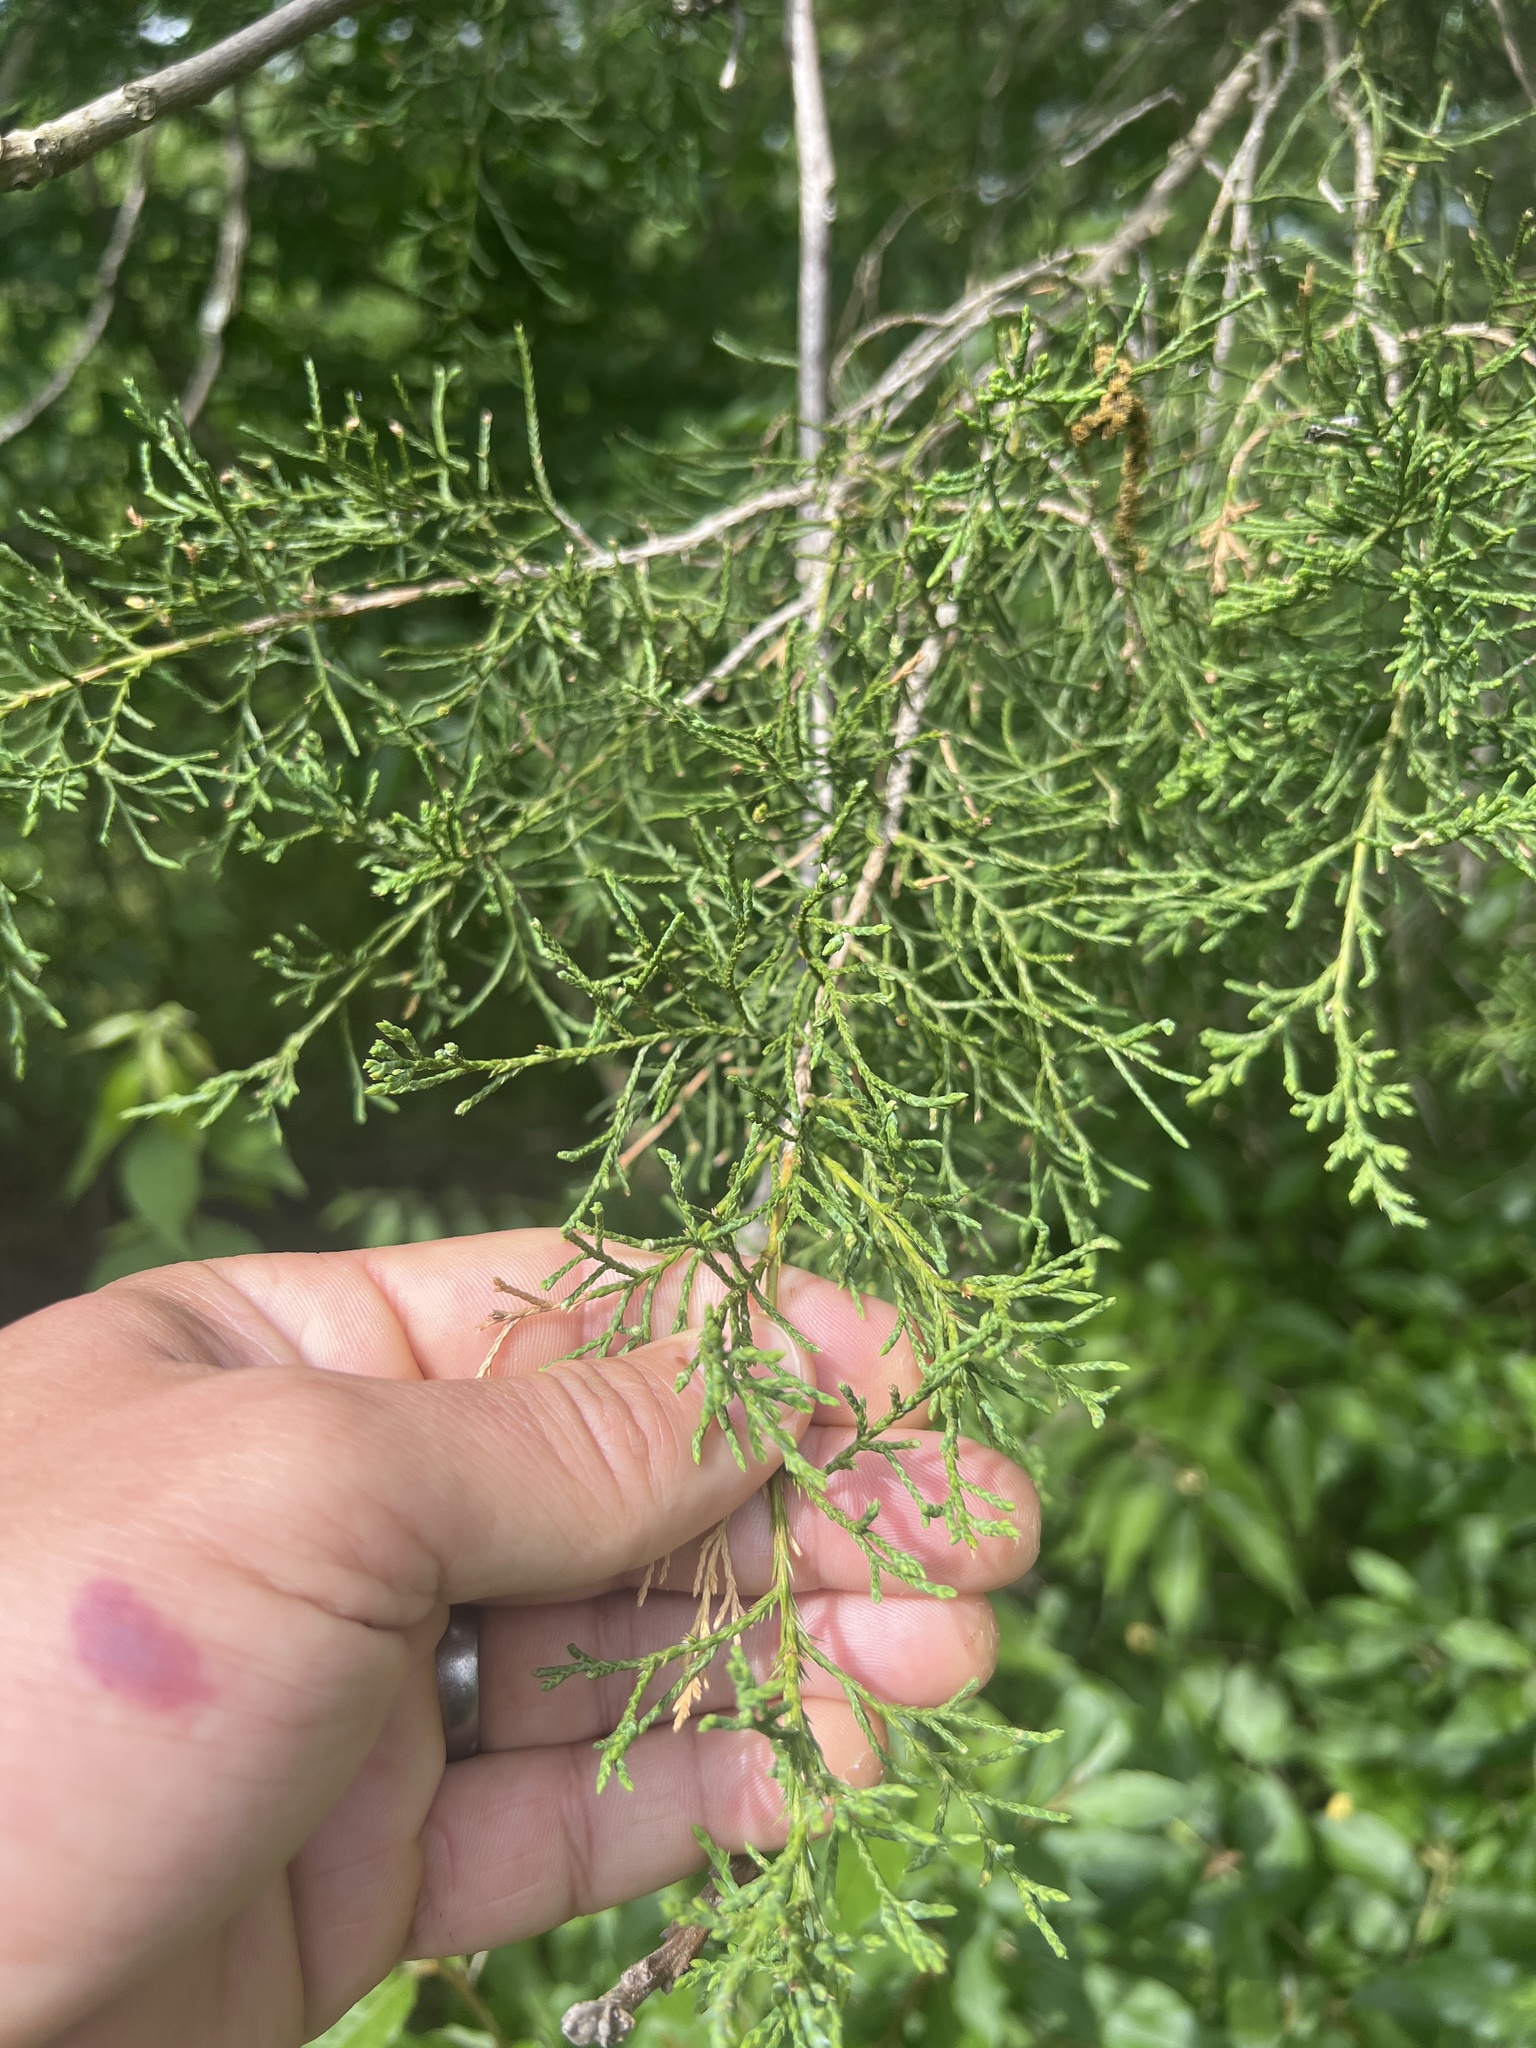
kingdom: Plantae
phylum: Tracheophyta
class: Pinopsida
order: Pinales
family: Cupressaceae
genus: Juniperus
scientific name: Juniperus virginiana
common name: Red juniper
